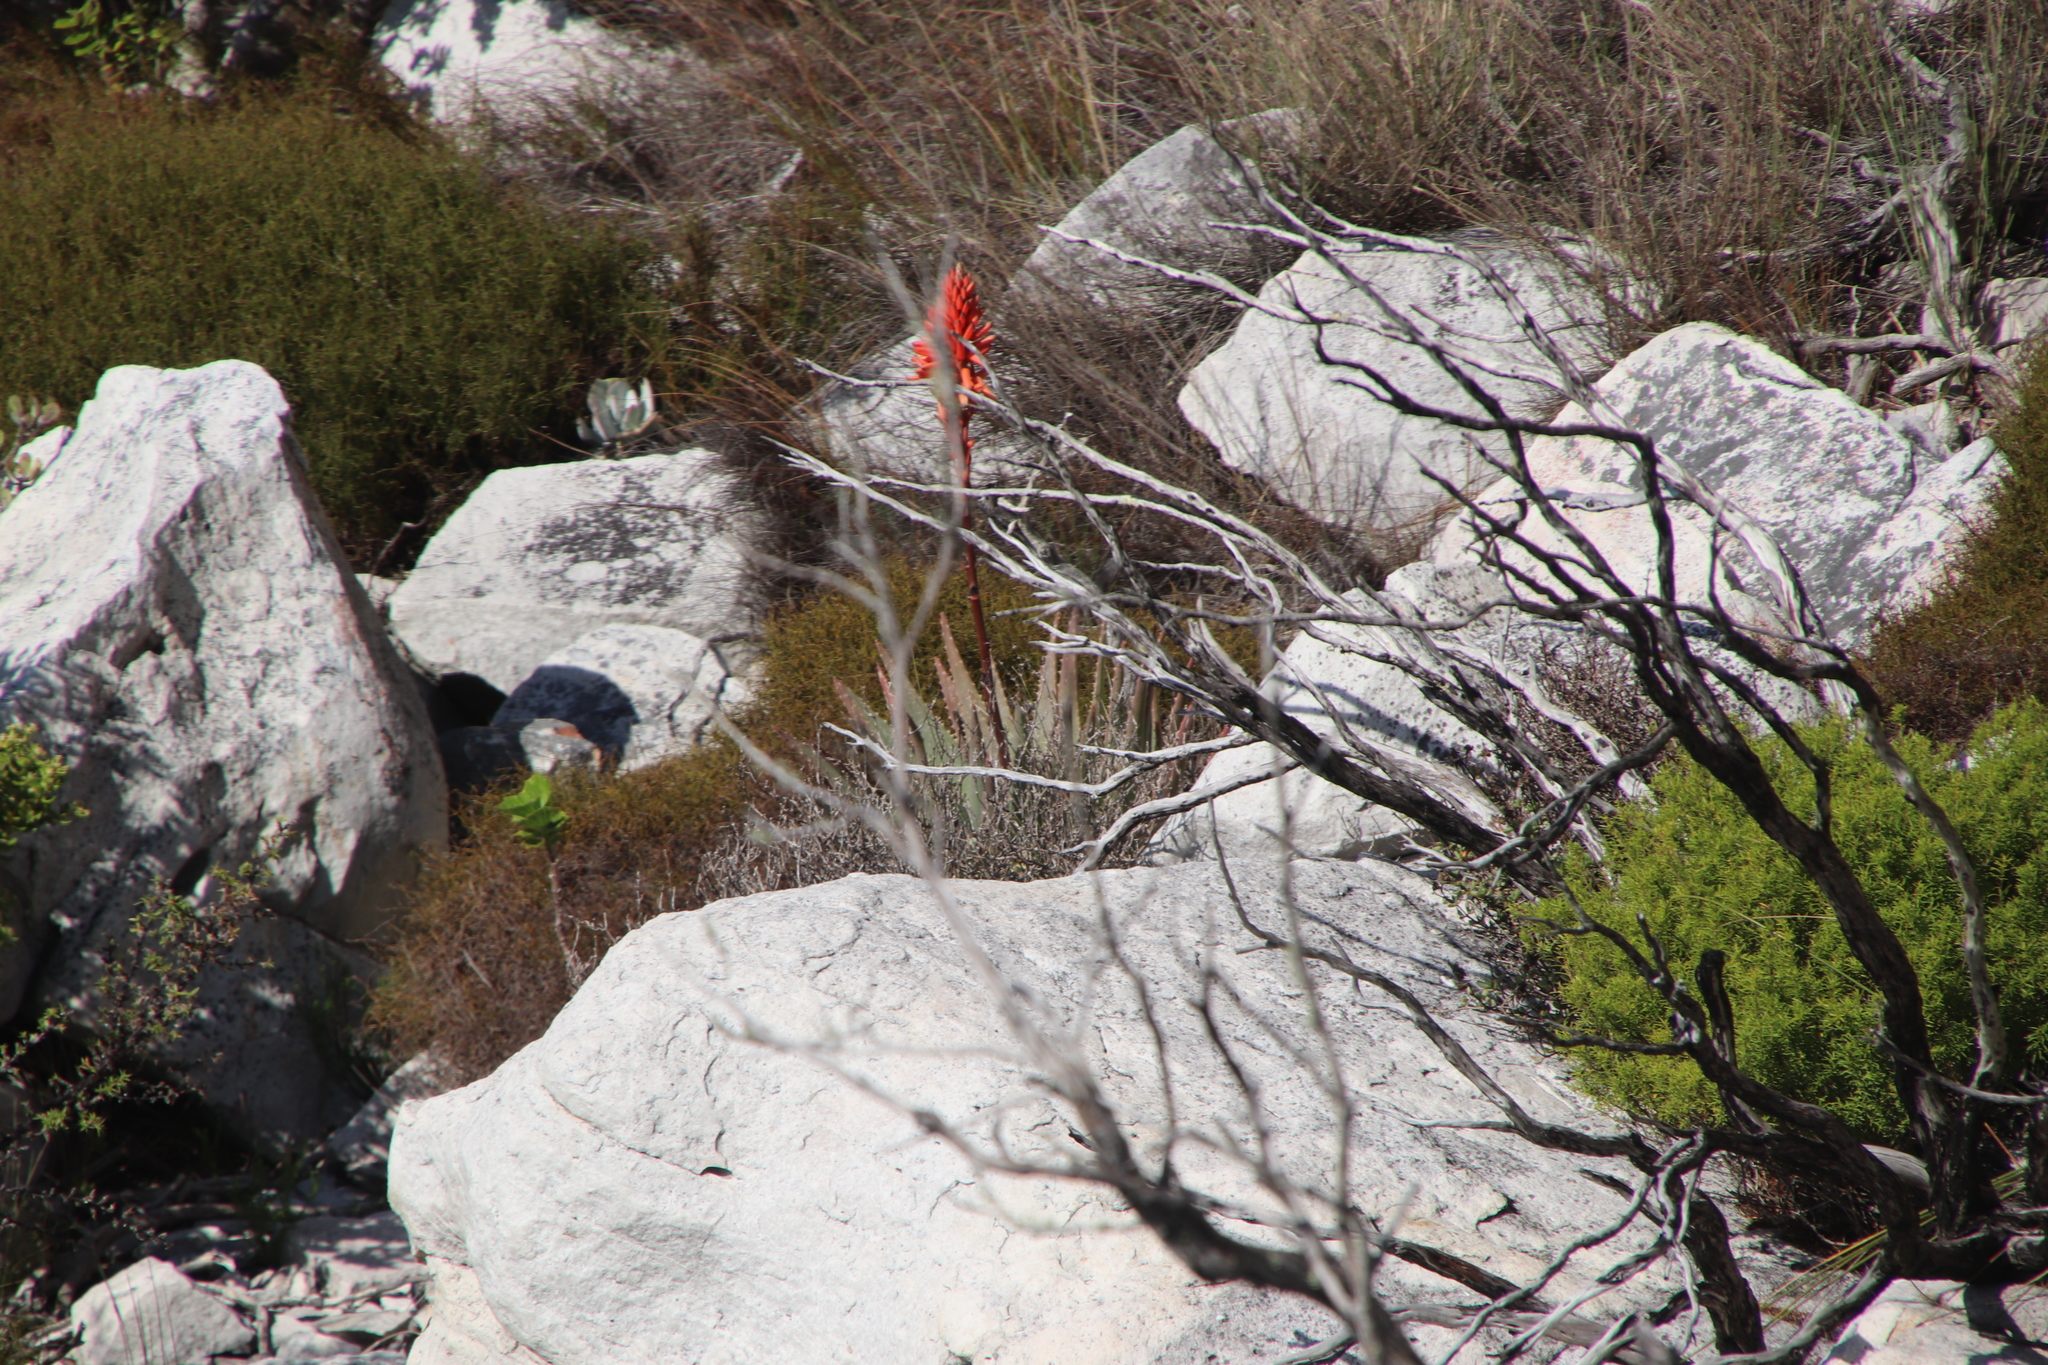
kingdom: Plantae
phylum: Tracheophyta
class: Liliopsida
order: Asparagales
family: Asphodelaceae
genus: Aloe
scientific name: Aloe succotrina
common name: Bombay aloe
